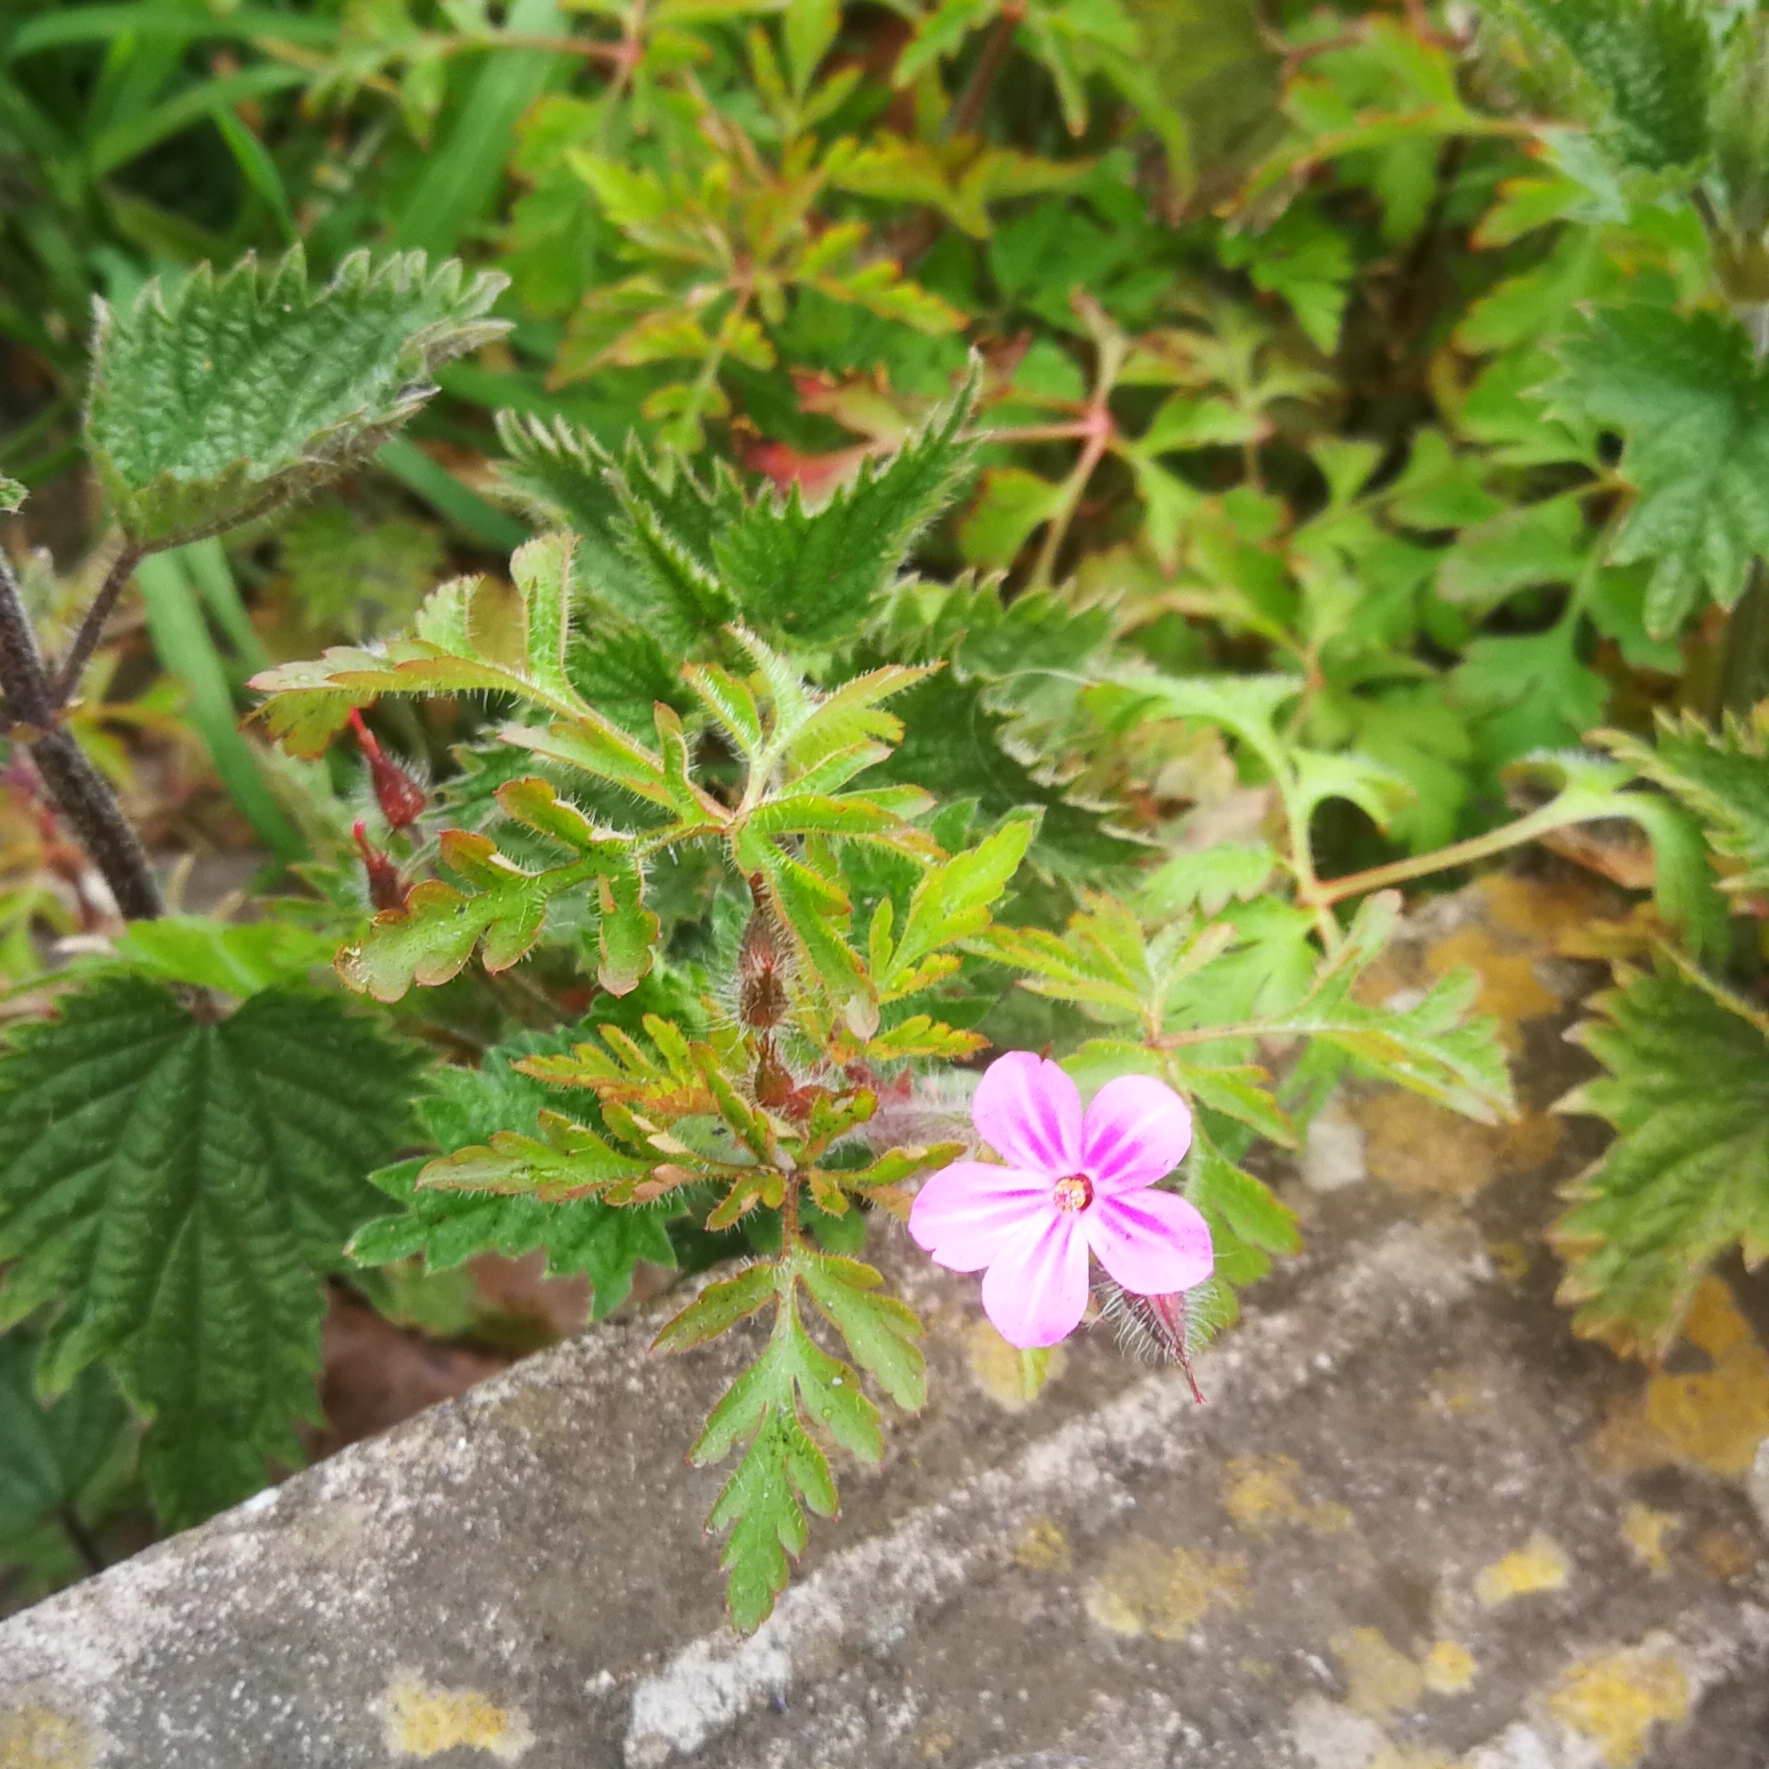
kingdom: Plantae
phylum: Tracheophyta
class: Magnoliopsida
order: Geraniales
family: Geraniaceae
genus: Geranium
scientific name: Geranium robertianum
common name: Herb-robert
